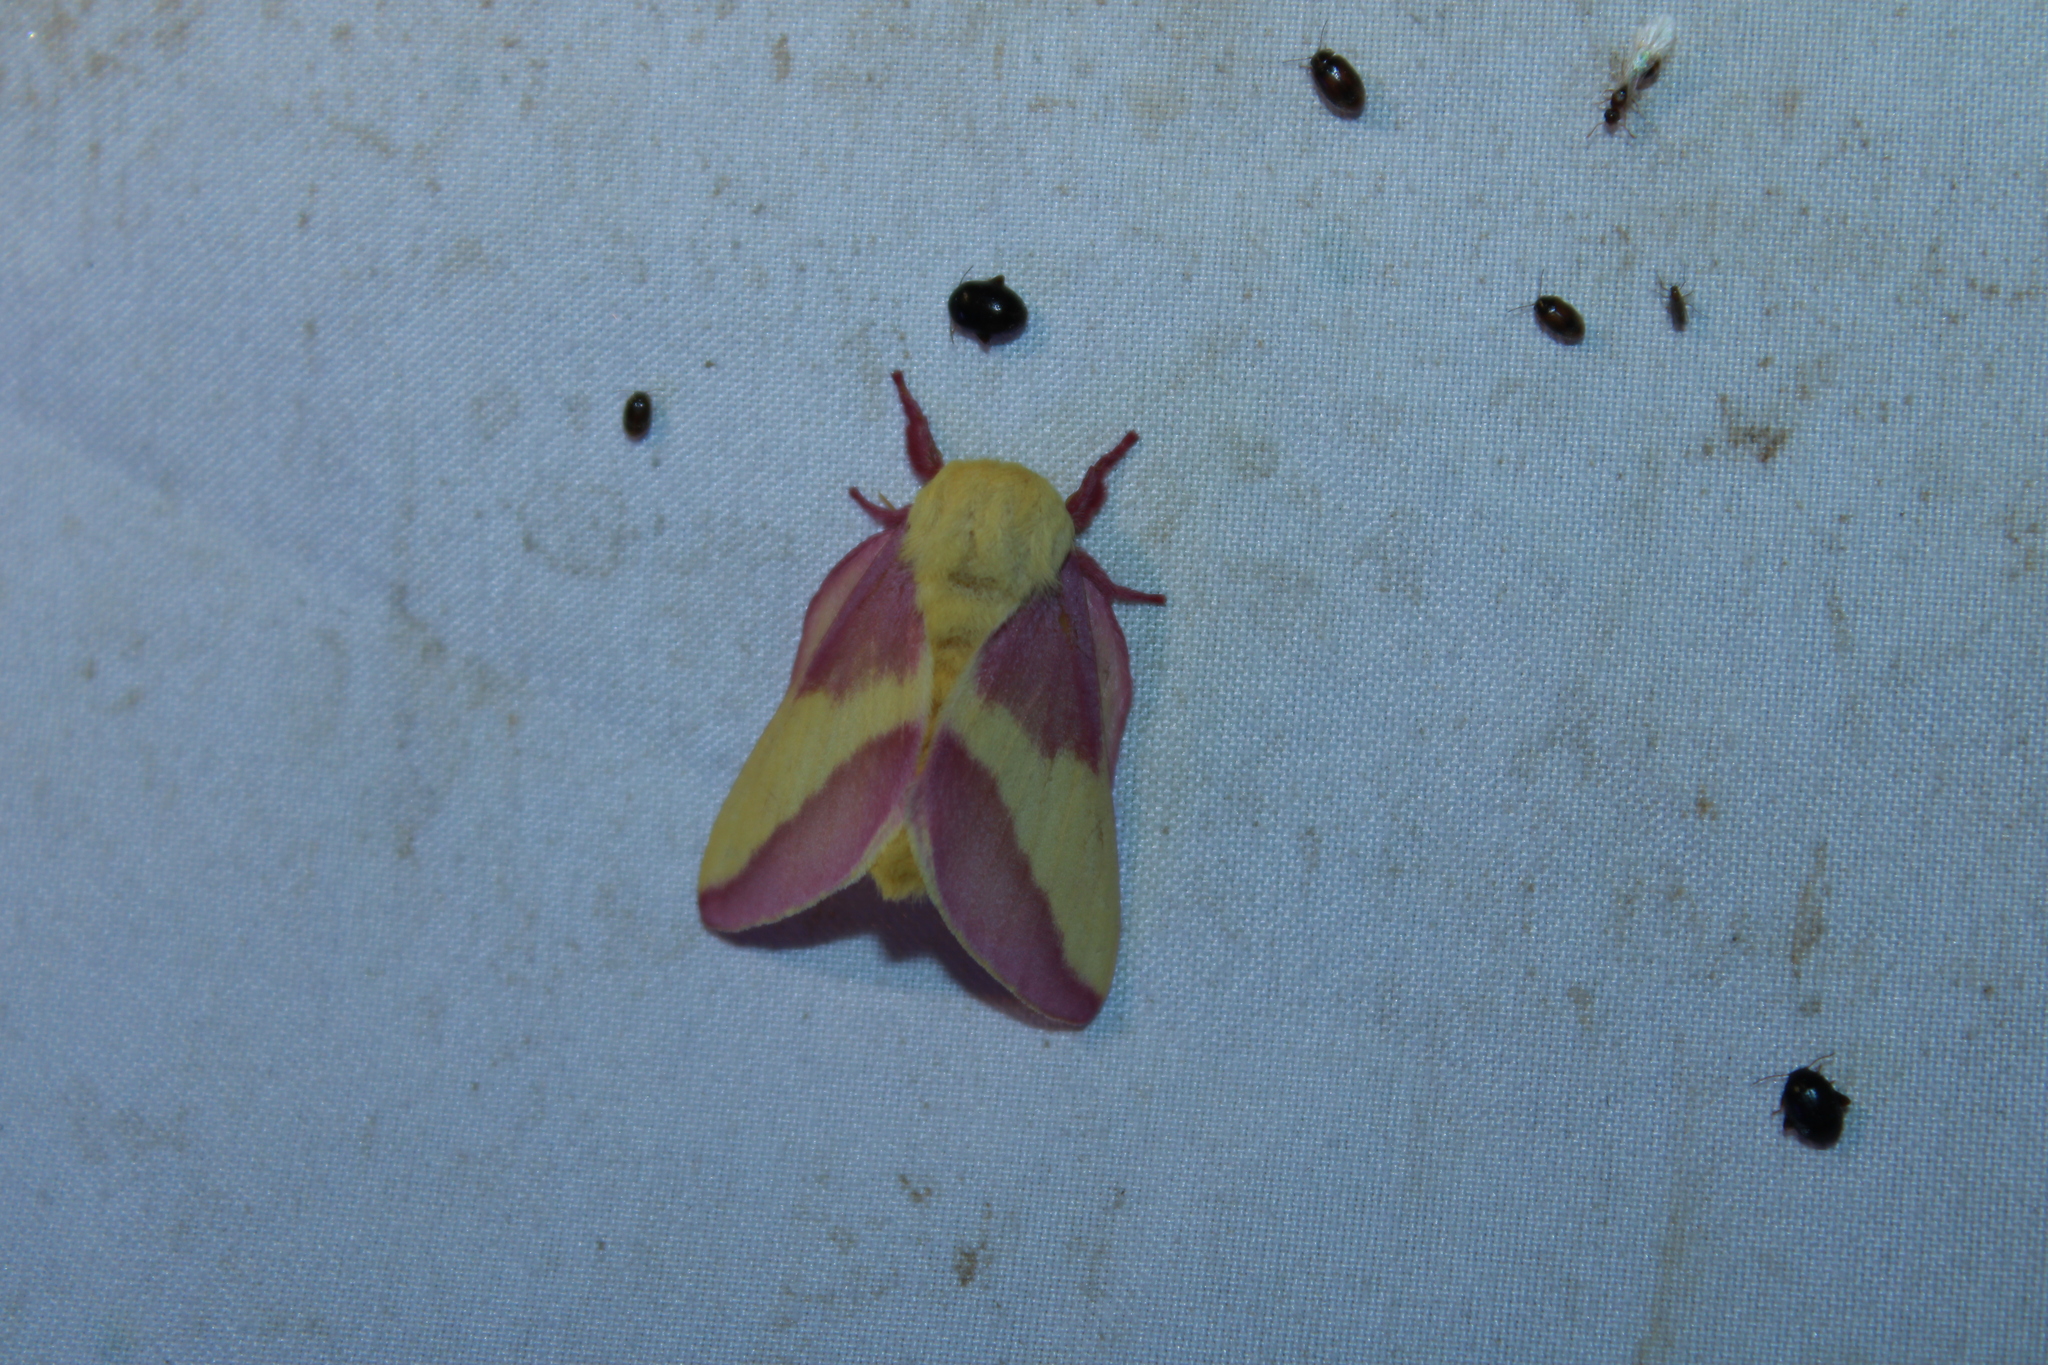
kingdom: Animalia
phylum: Arthropoda
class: Insecta
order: Lepidoptera
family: Saturniidae
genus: Dryocampa
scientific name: Dryocampa rubicunda
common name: Rosy maple moth
